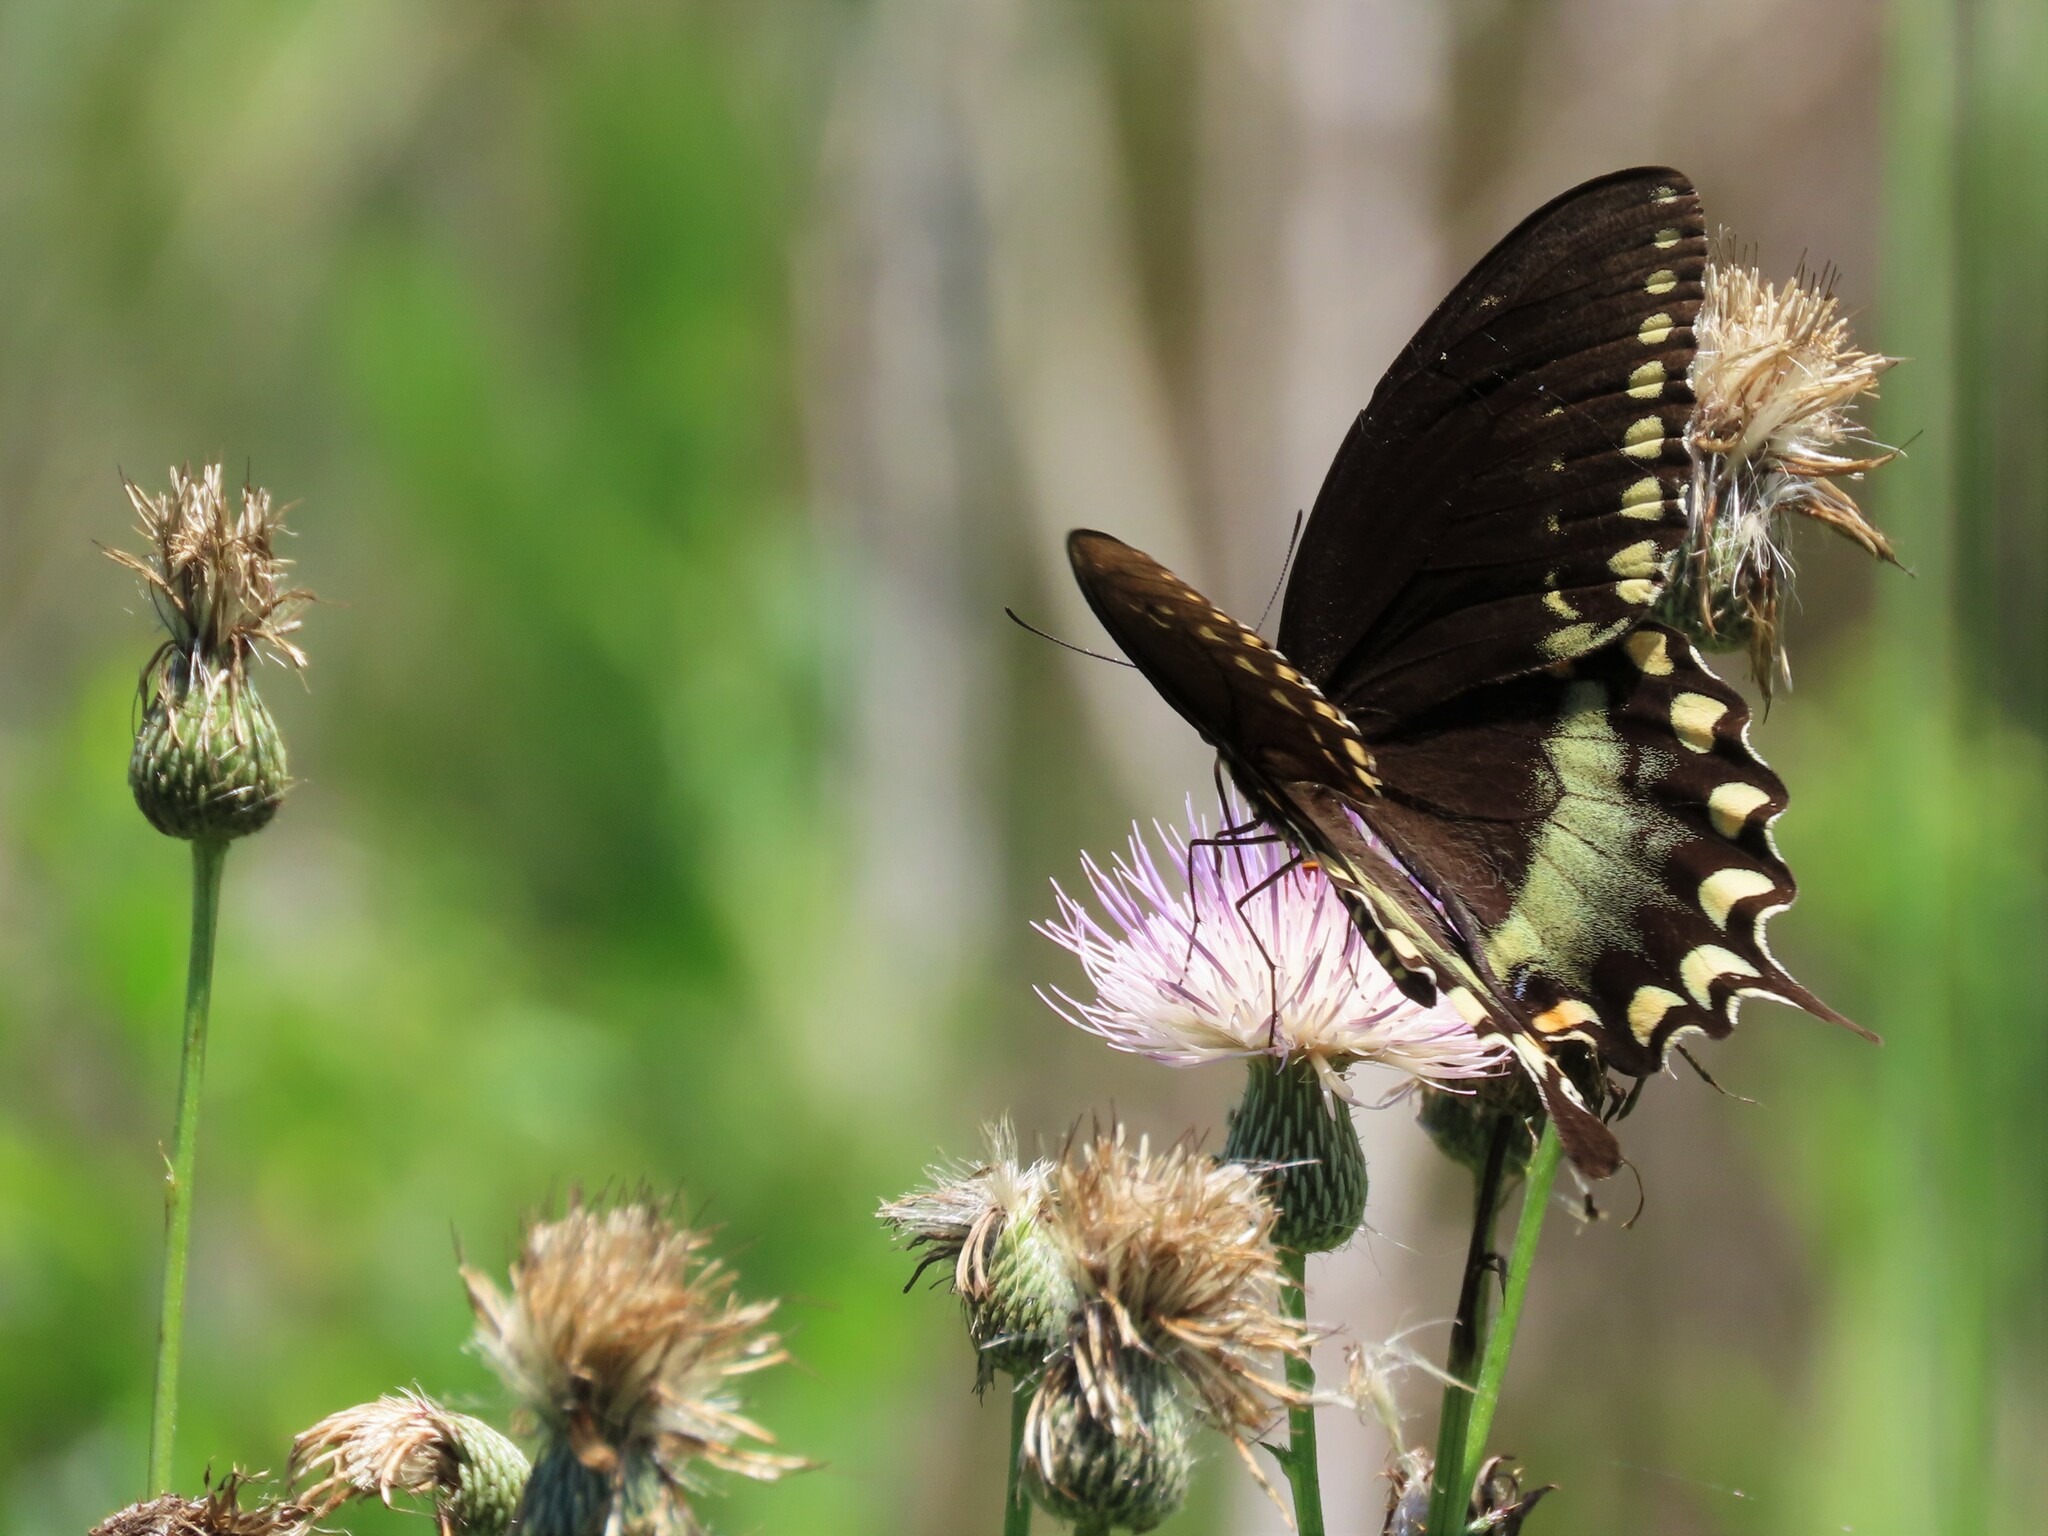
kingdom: Animalia
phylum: Arthropoda
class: Insecta
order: Lepidoptera
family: Papilionidae
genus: Papilio
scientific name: Papilio troilus
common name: Spicebush swallowtail
